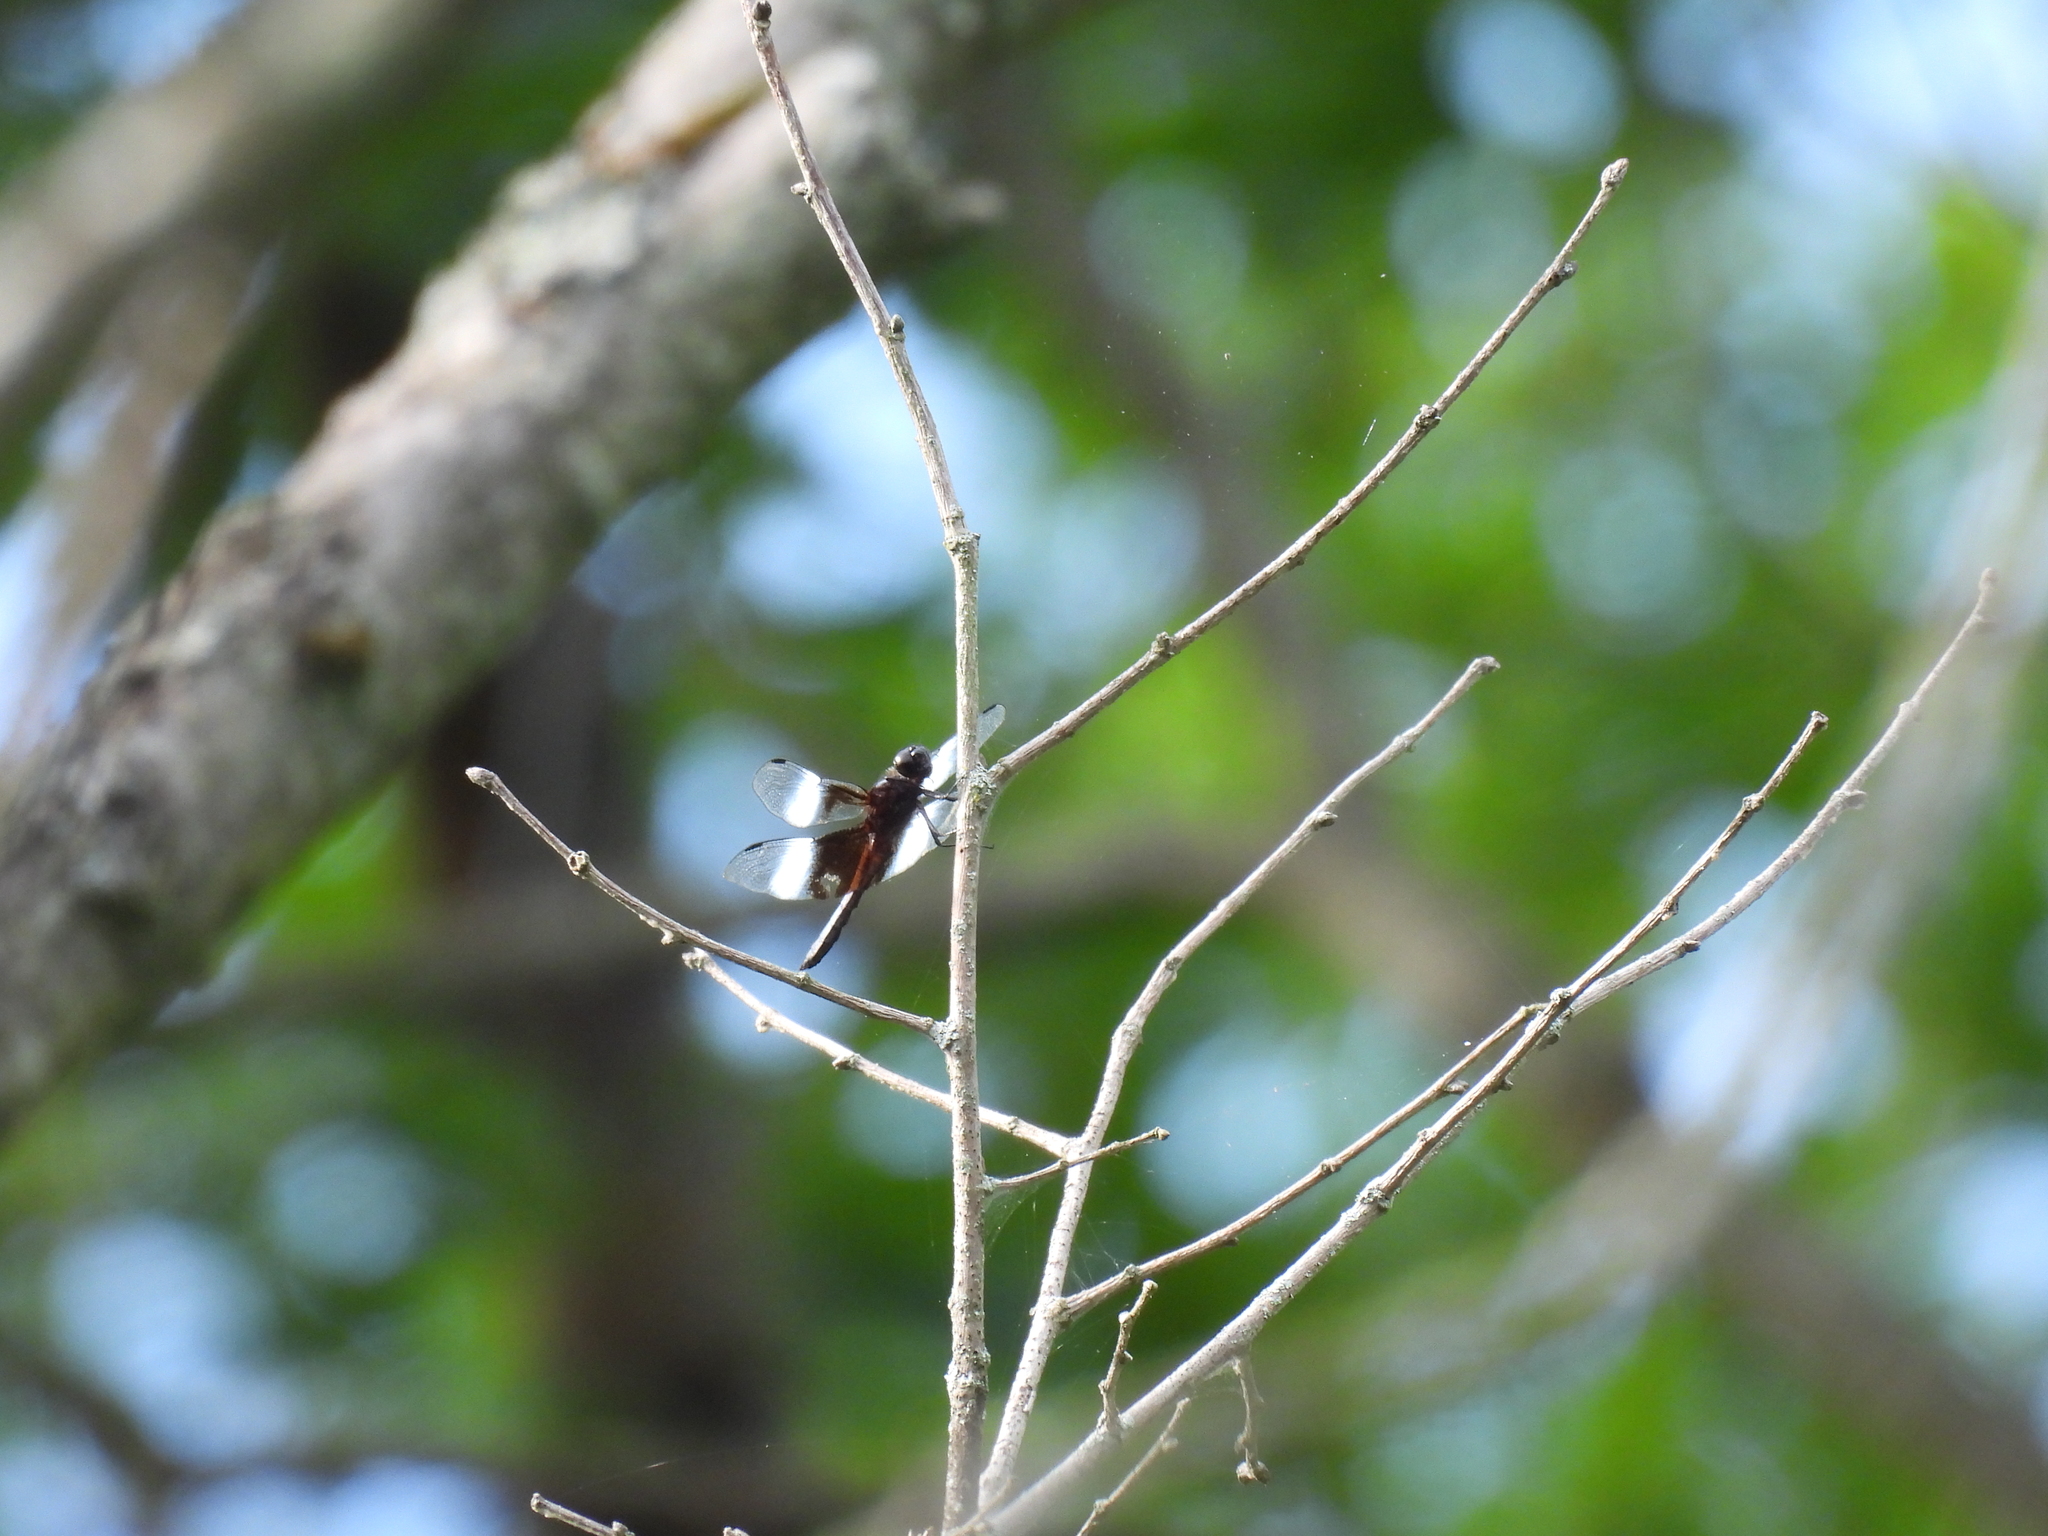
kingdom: Animalia
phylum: Arthropoda
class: Insecta
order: Odonata
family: Libellulidae
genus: Libellula
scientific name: Libellula luctuosa
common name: Widow skimmer
